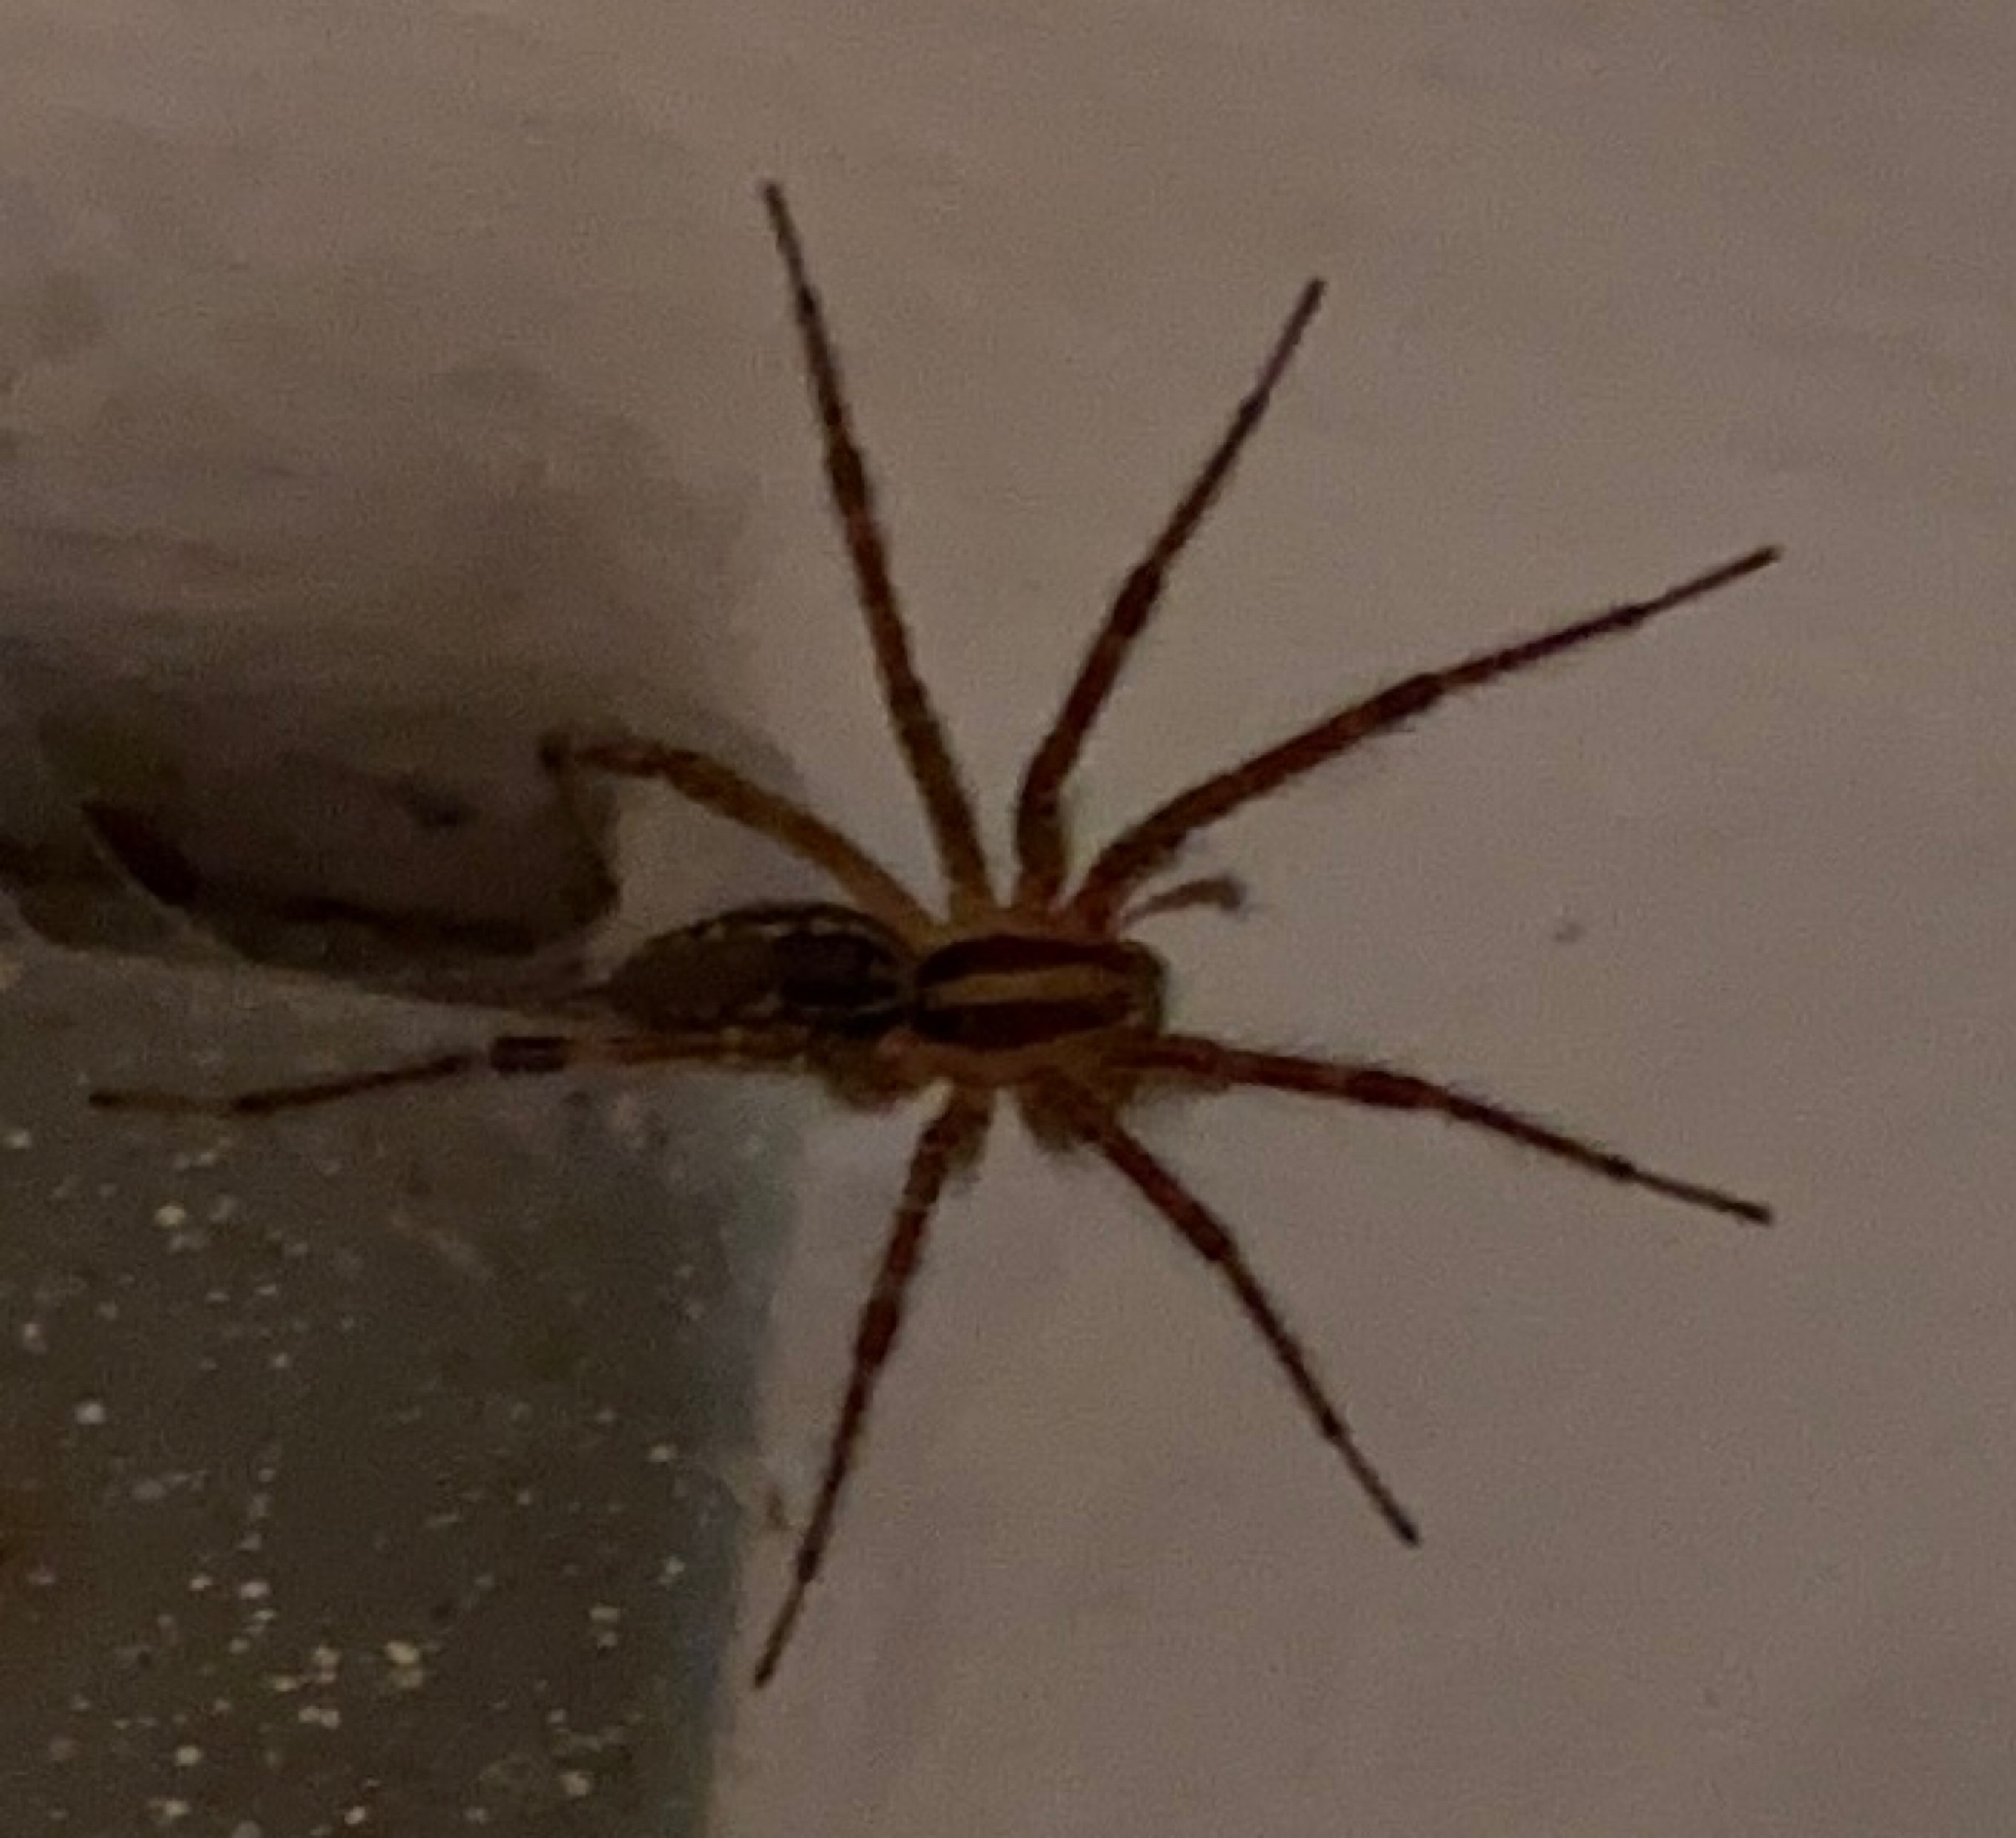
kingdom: Animalia
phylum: Arthropoda
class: Arachnida
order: Araneae
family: Agelenidae
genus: Agelenopsis
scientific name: Agelenopsis
